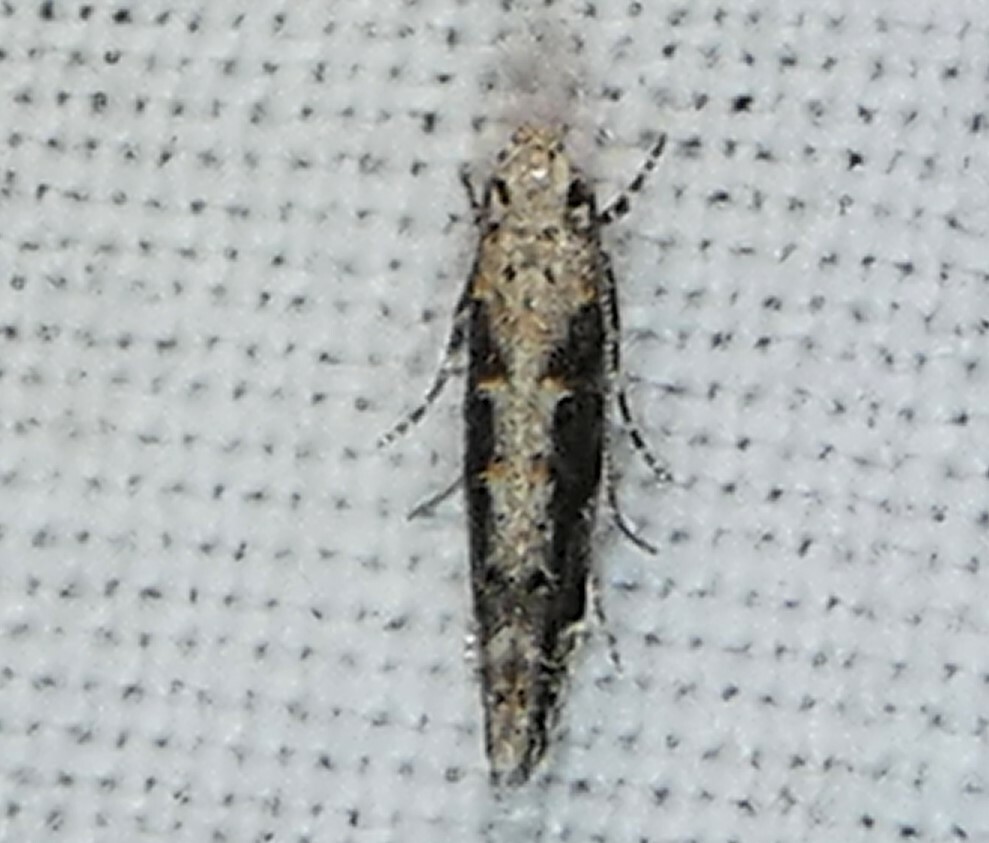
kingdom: Animalia
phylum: Arthropoda
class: Insecta
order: Lepidoptera
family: Gelechiidae
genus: Coleotechnites
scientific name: Coleotechnites florae
